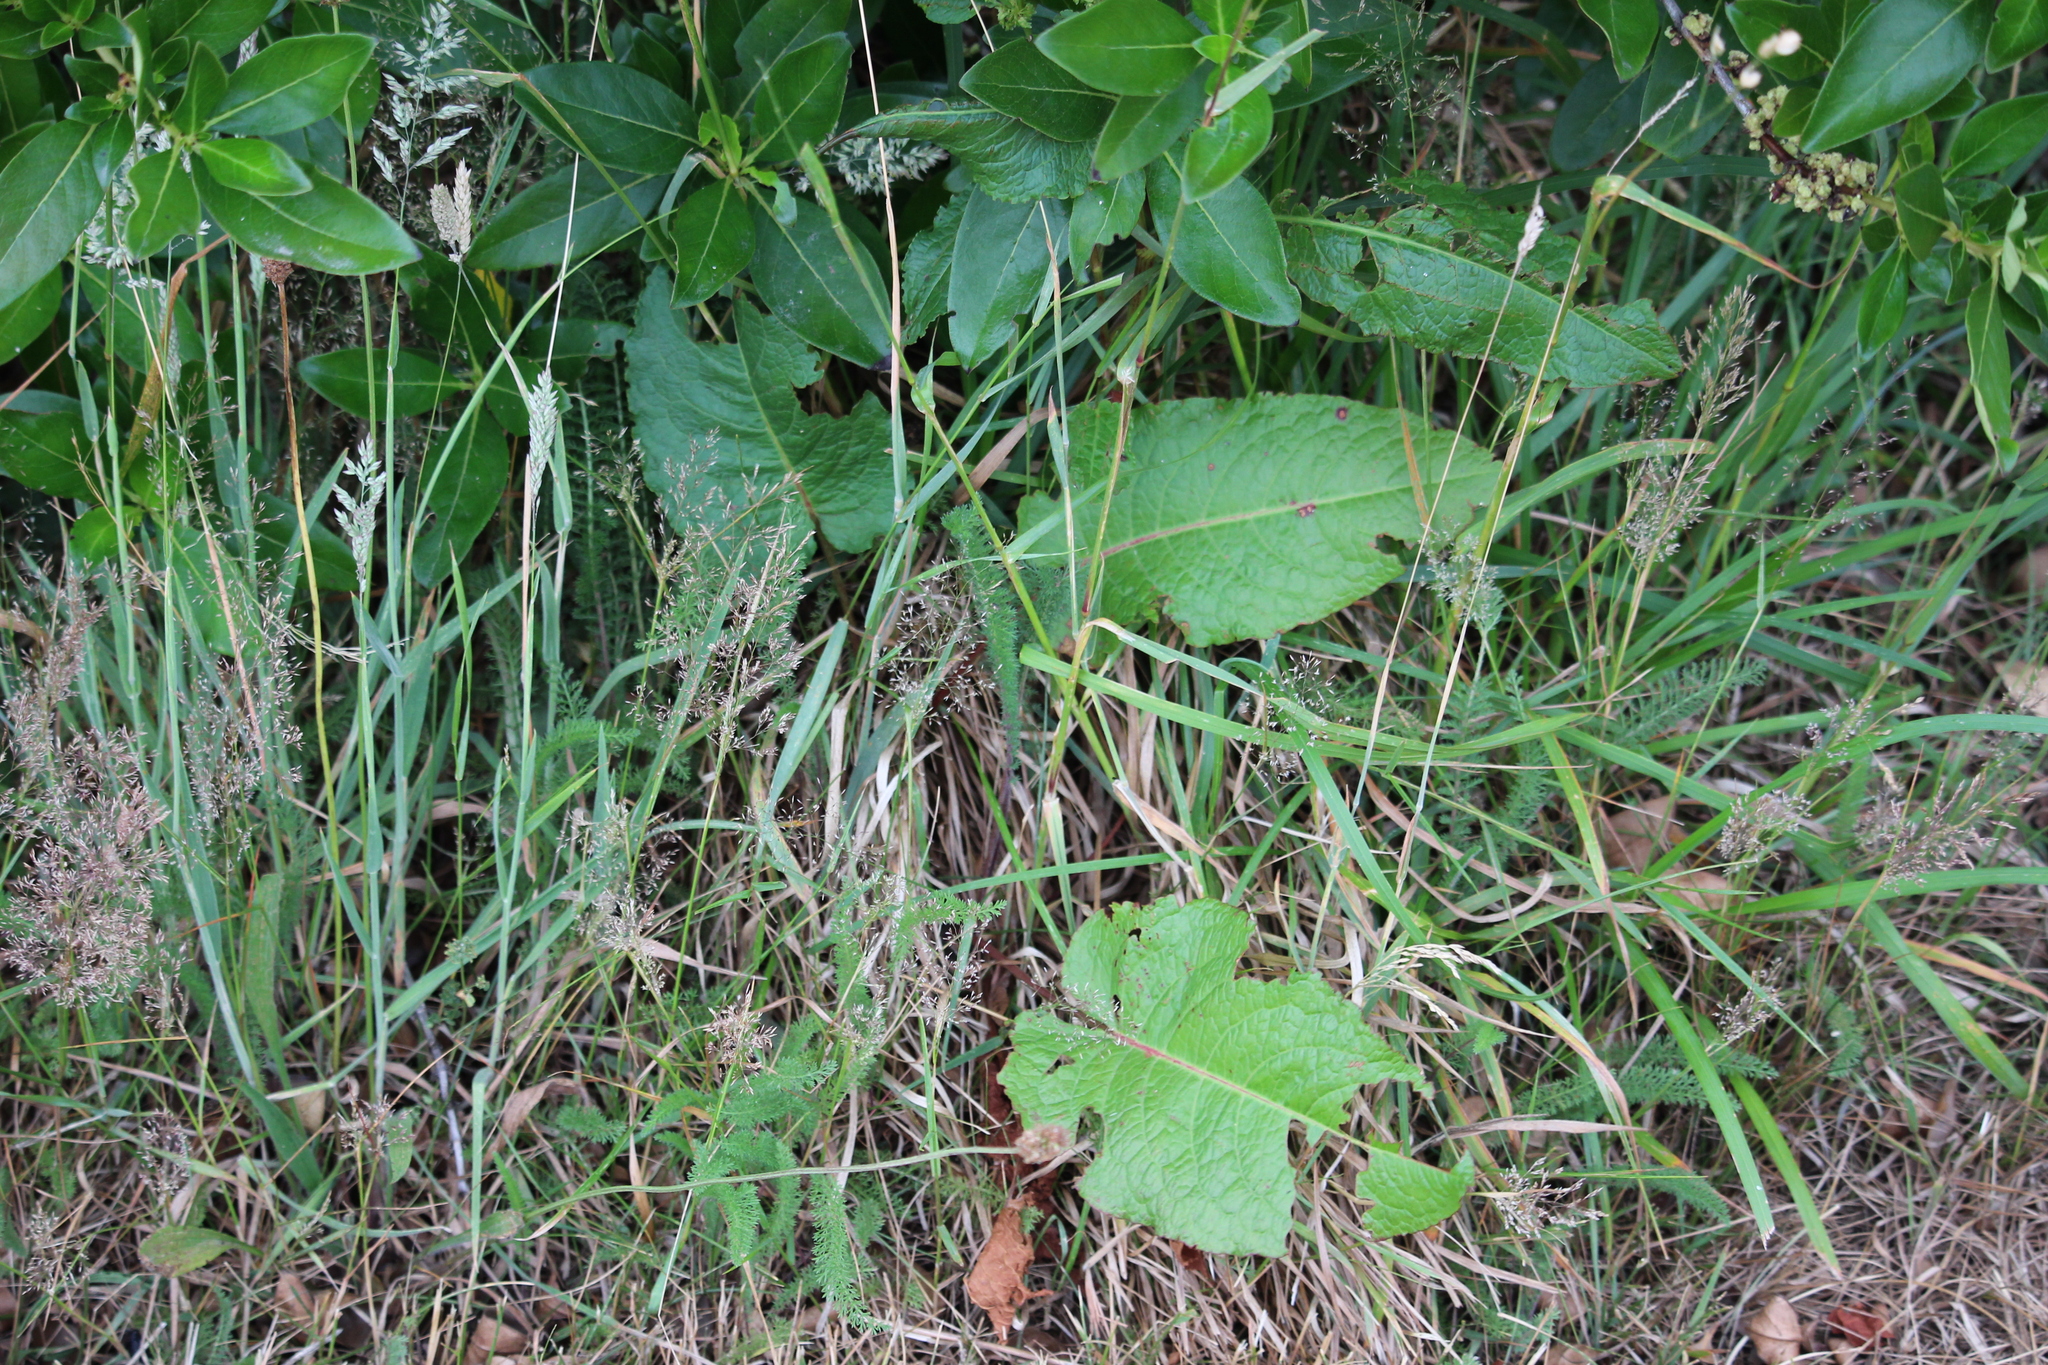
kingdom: Plantae
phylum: Tracheophyta
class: Magnoliopsida
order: Caryophyllales
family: Polygonaceae
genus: Rumex
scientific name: Rumex obtusifolius
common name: Bitter dock
